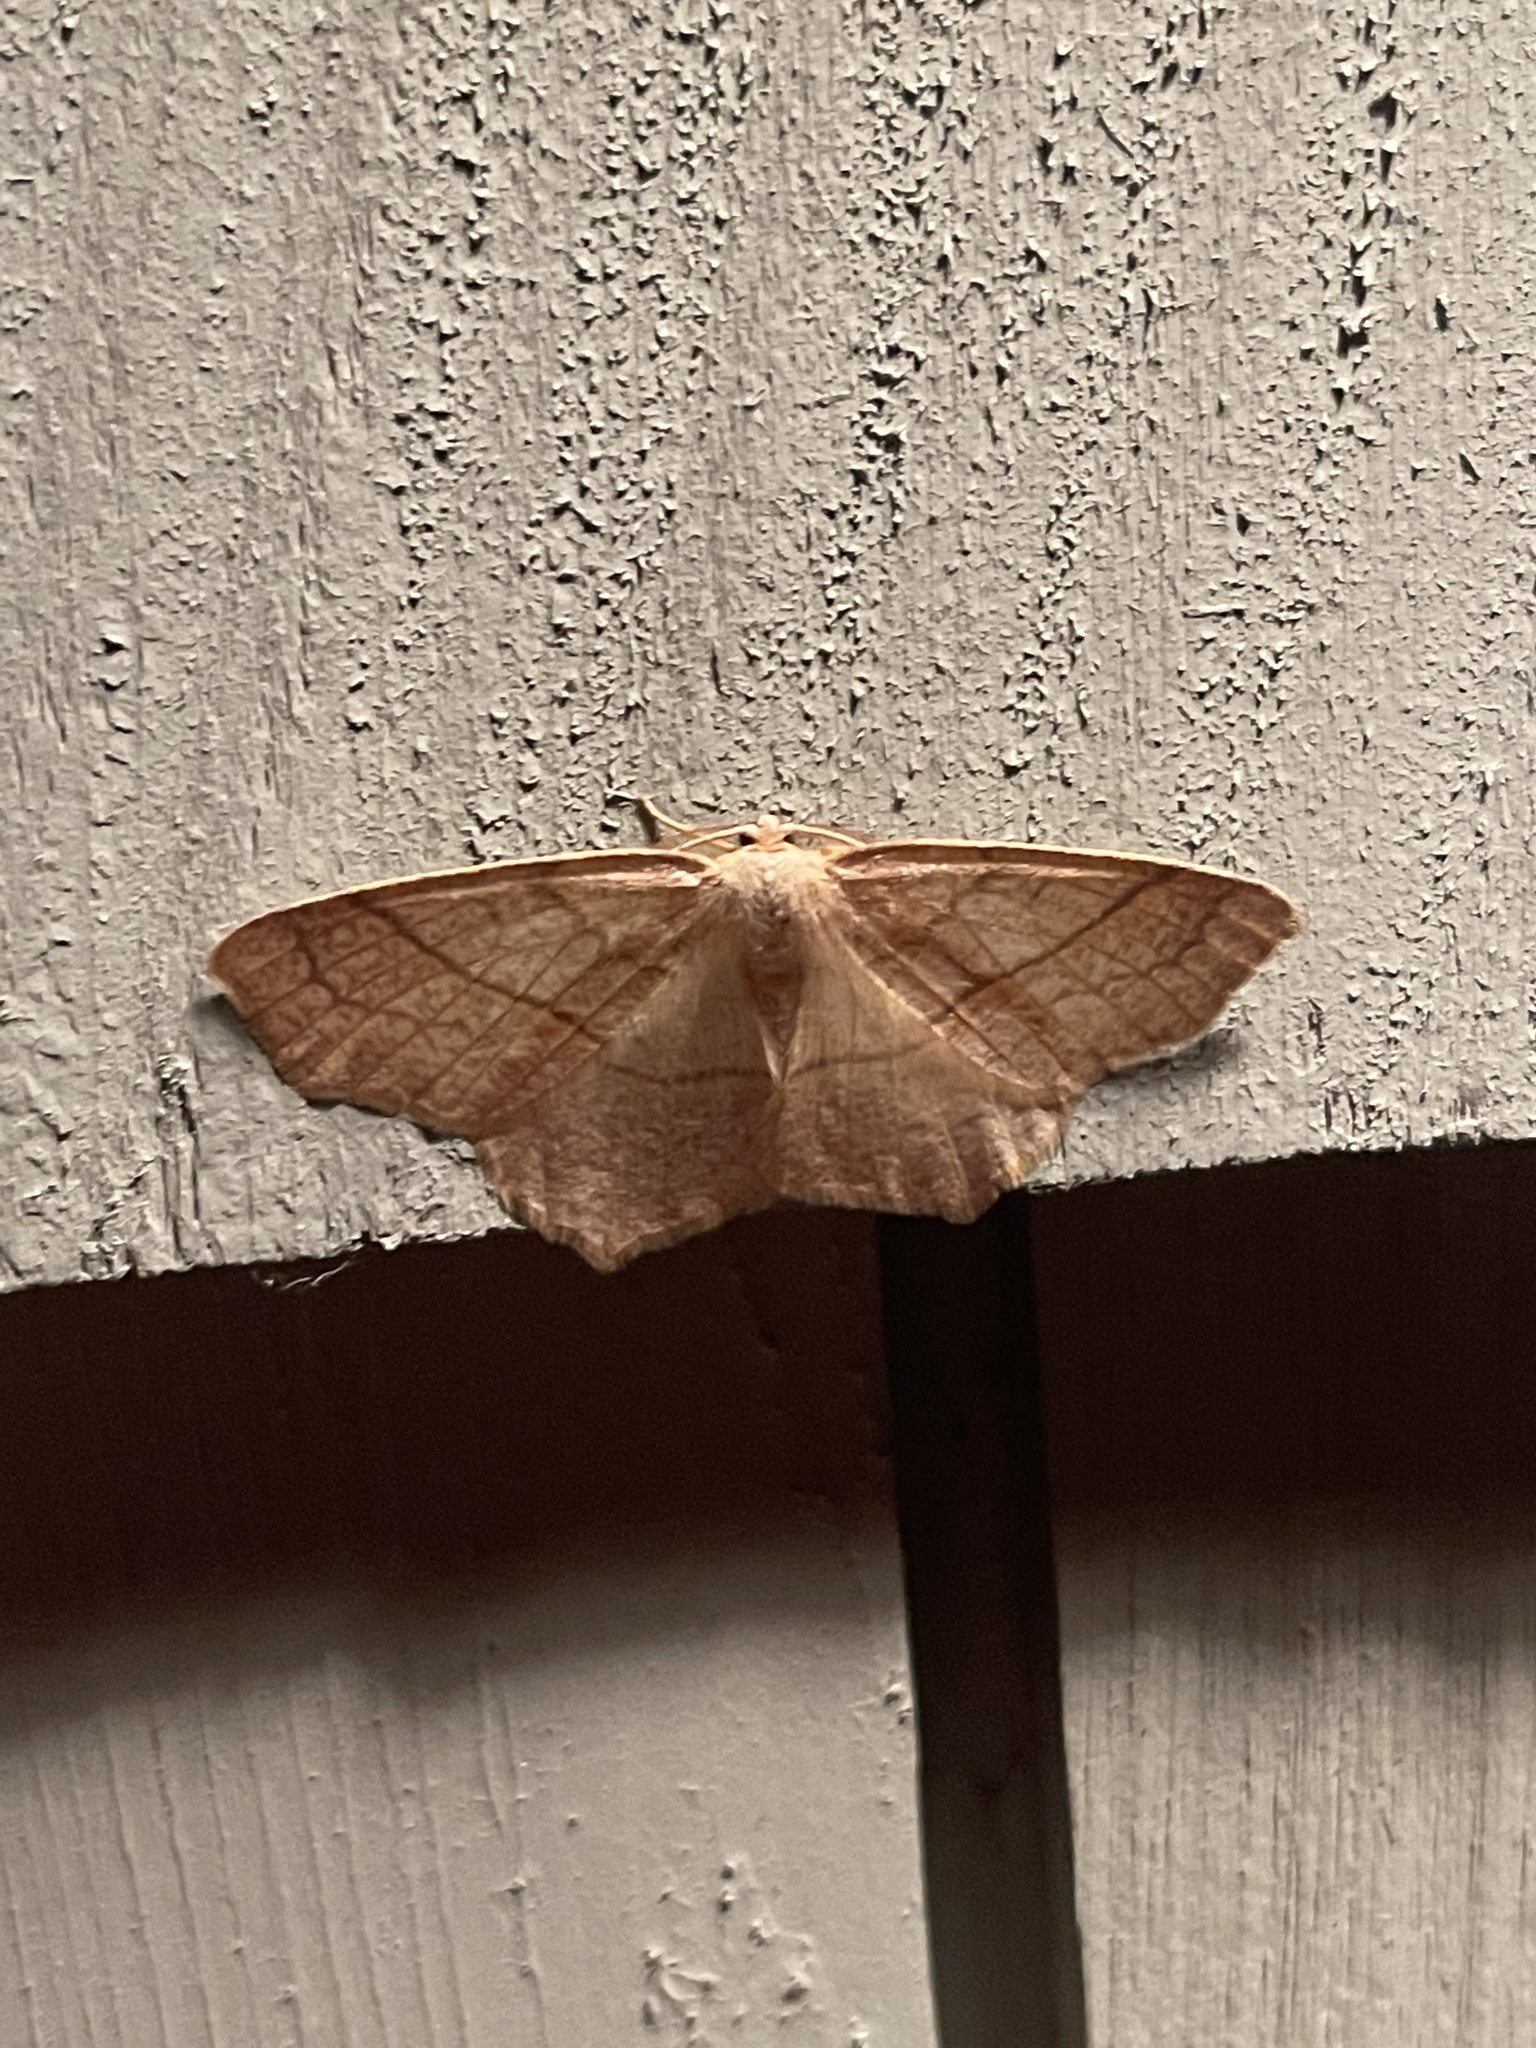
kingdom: Animalia
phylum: Arthropoda
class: Insecta
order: Lepidoptera
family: Geometridae
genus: Besma
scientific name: Besma quercivoraria
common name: Oak besma
